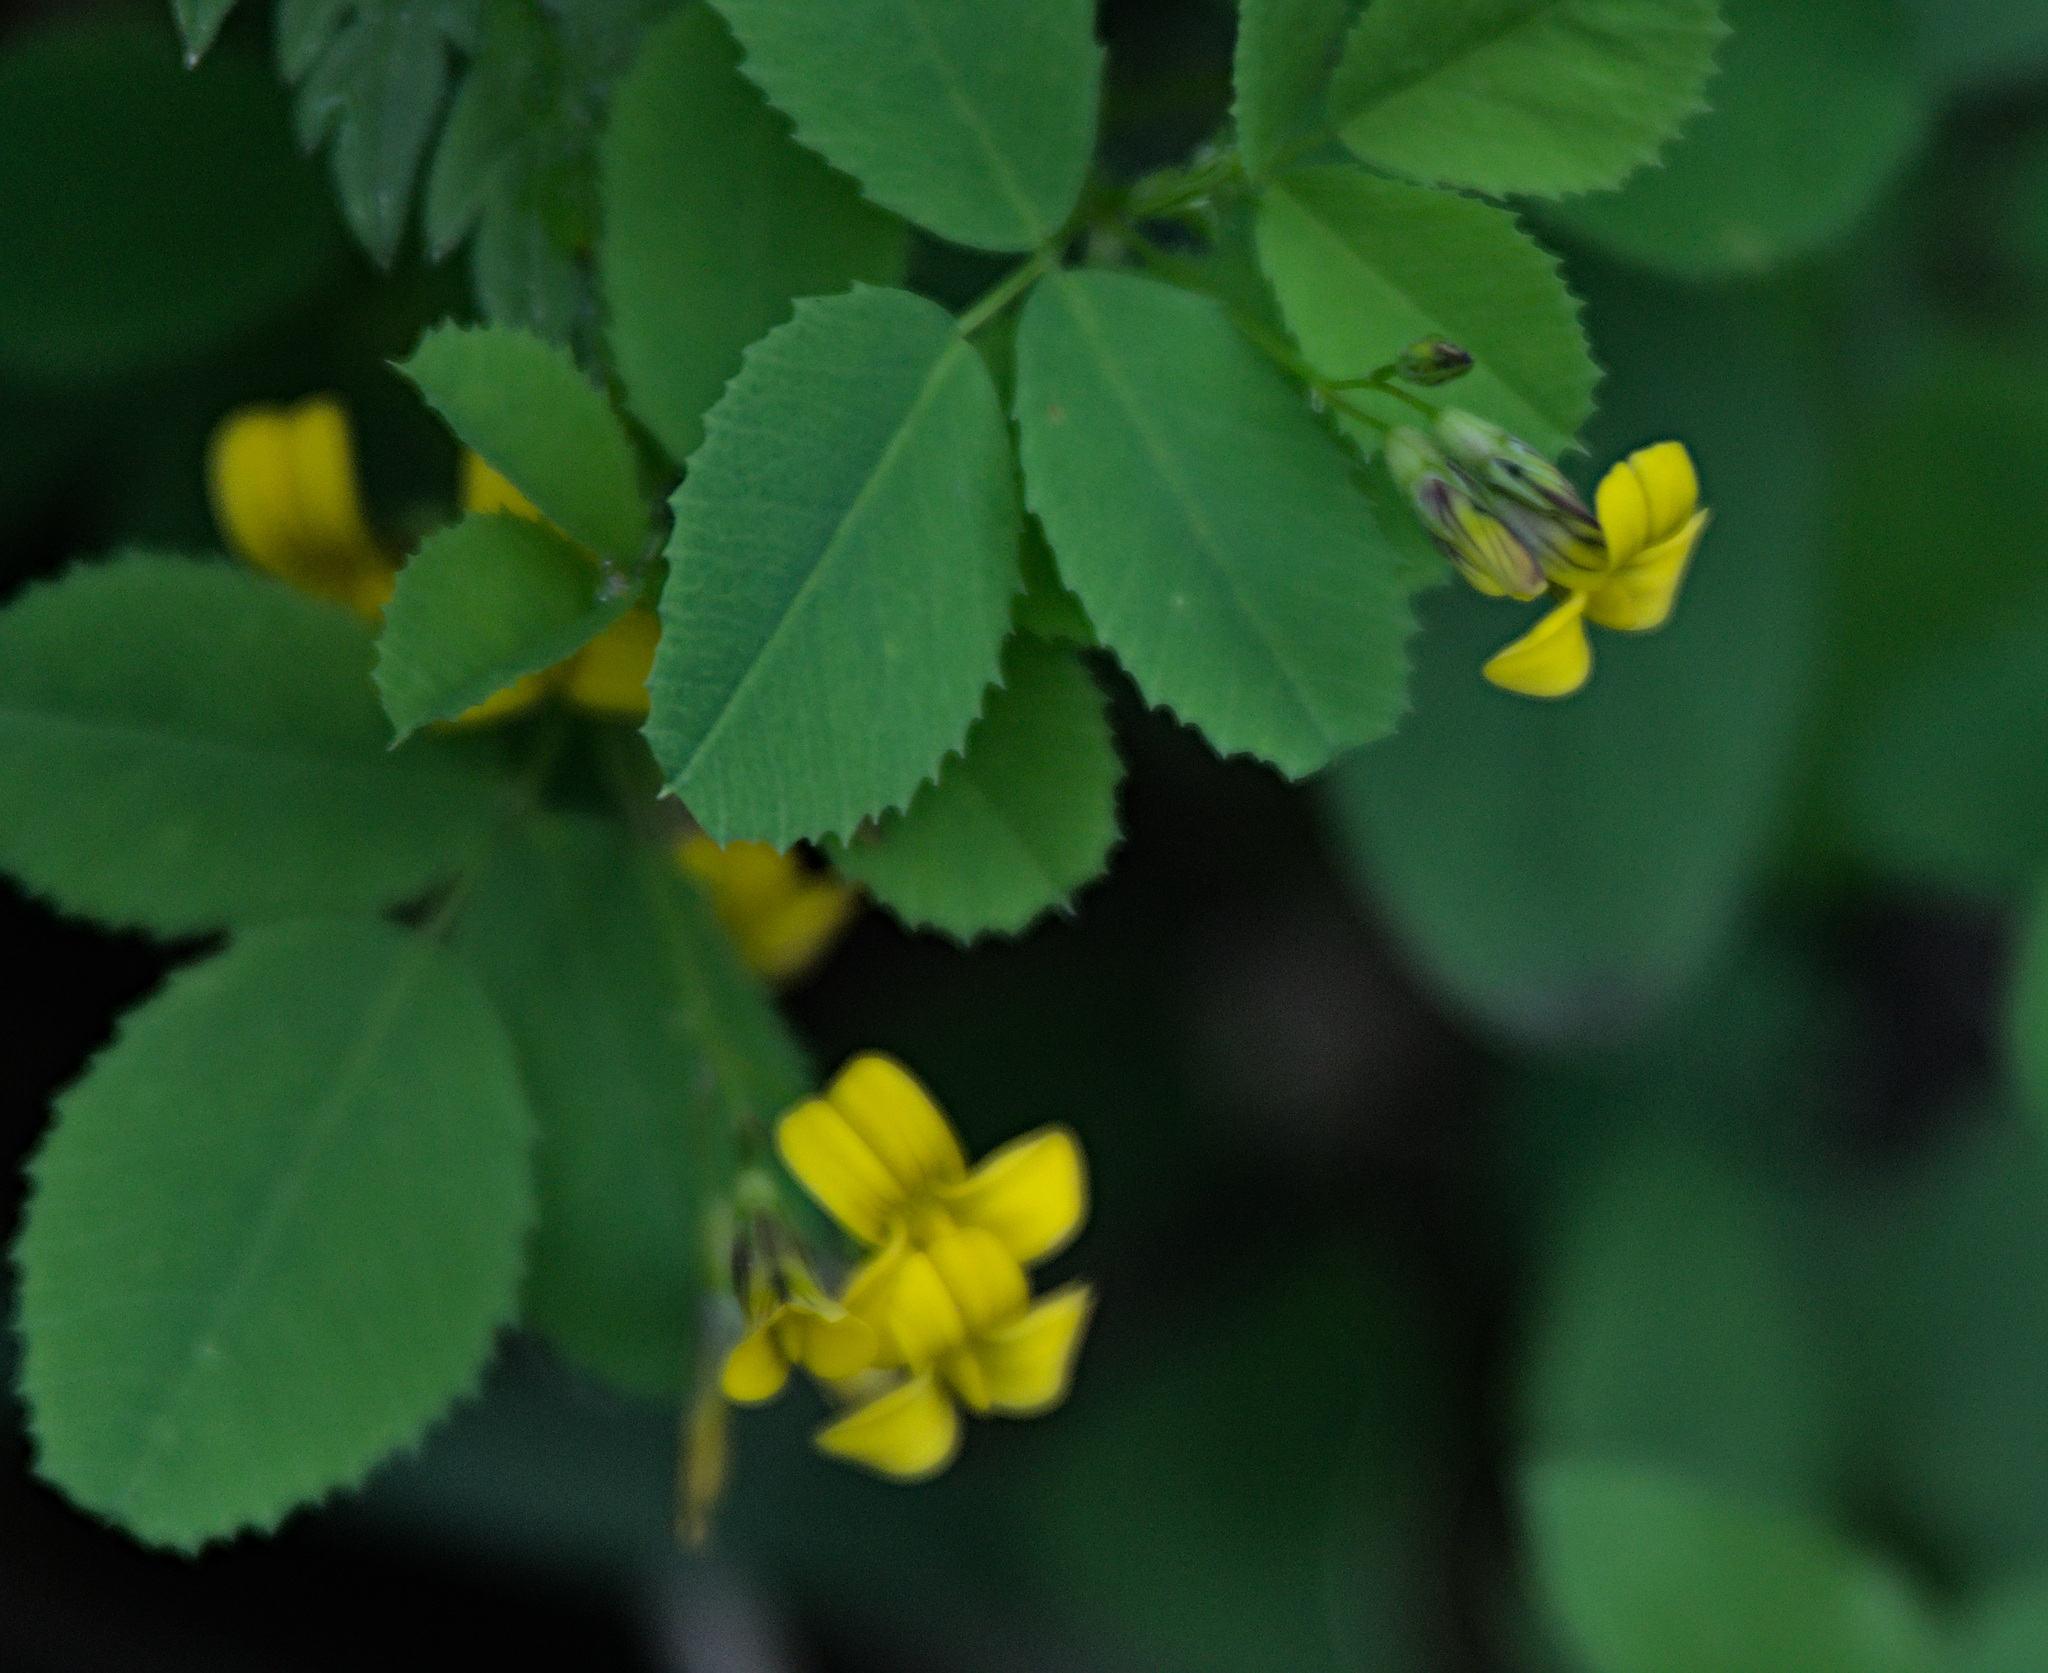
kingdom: Plantae
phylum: Tracheophyta
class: Magnoliopsida
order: Fabales
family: Fabaceae
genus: Medicago
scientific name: Medicago platycarpos
